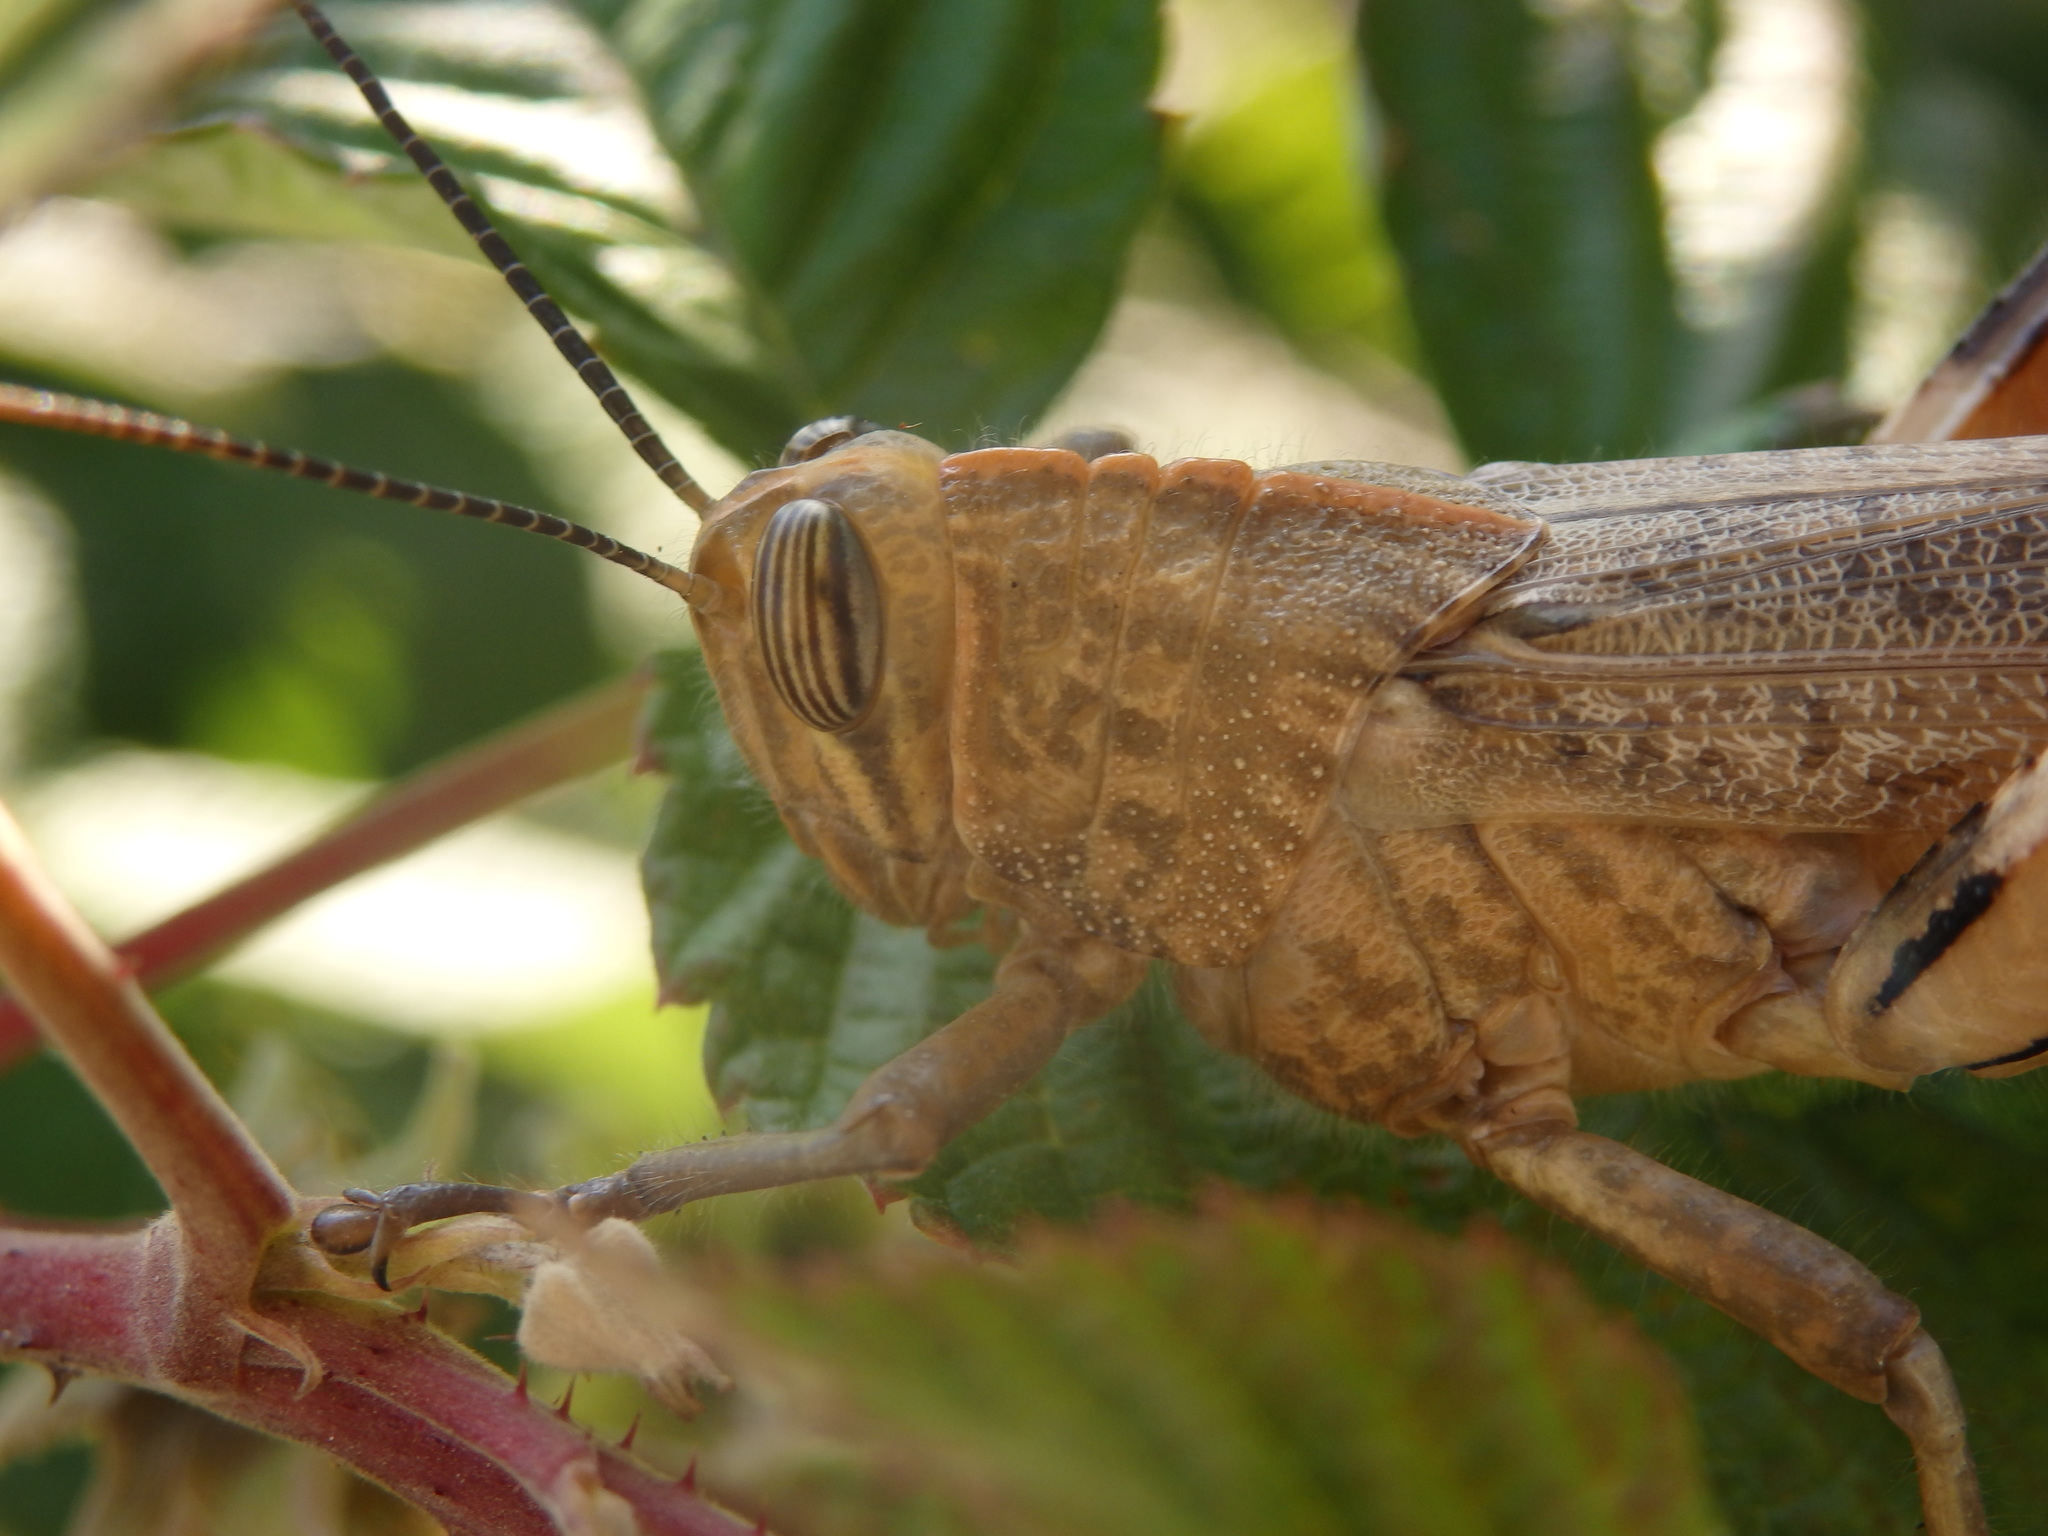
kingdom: Animalia
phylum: Arthropoda
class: Insecta
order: Orthoptera
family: Acrididae
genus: Anacridium
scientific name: Anacridium aegyptium
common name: Egyptian grasshopper
